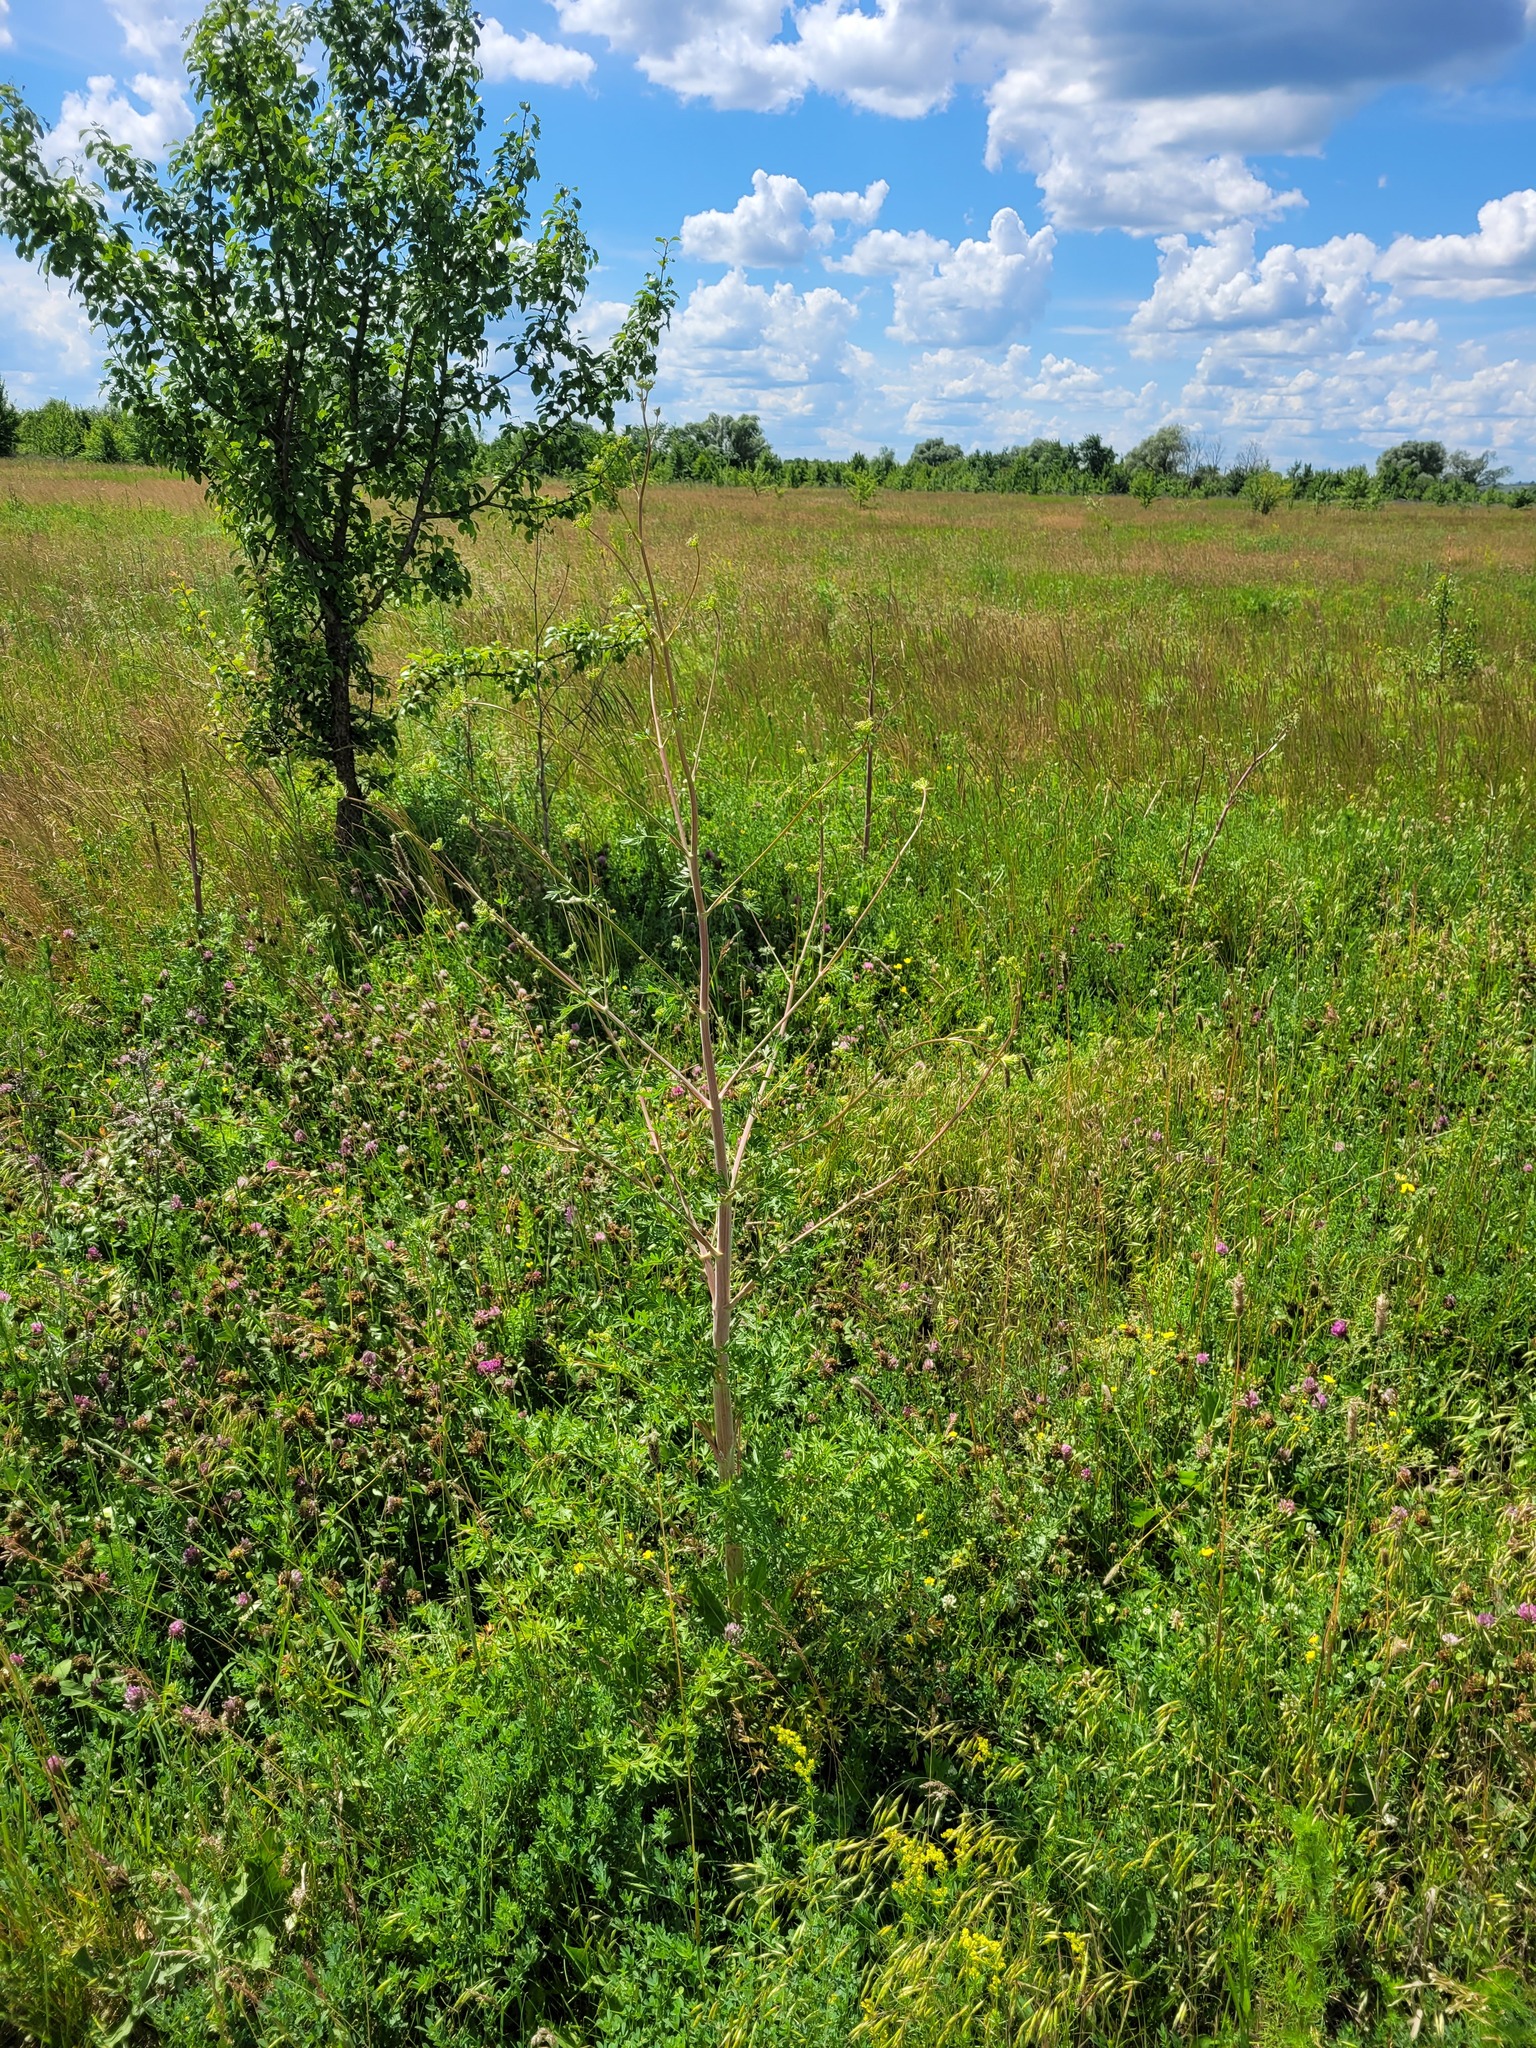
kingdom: Plantae
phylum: Tracheophyta
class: Magnoliopsida
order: Apiales
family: Apiaceae
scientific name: Apiaceae
